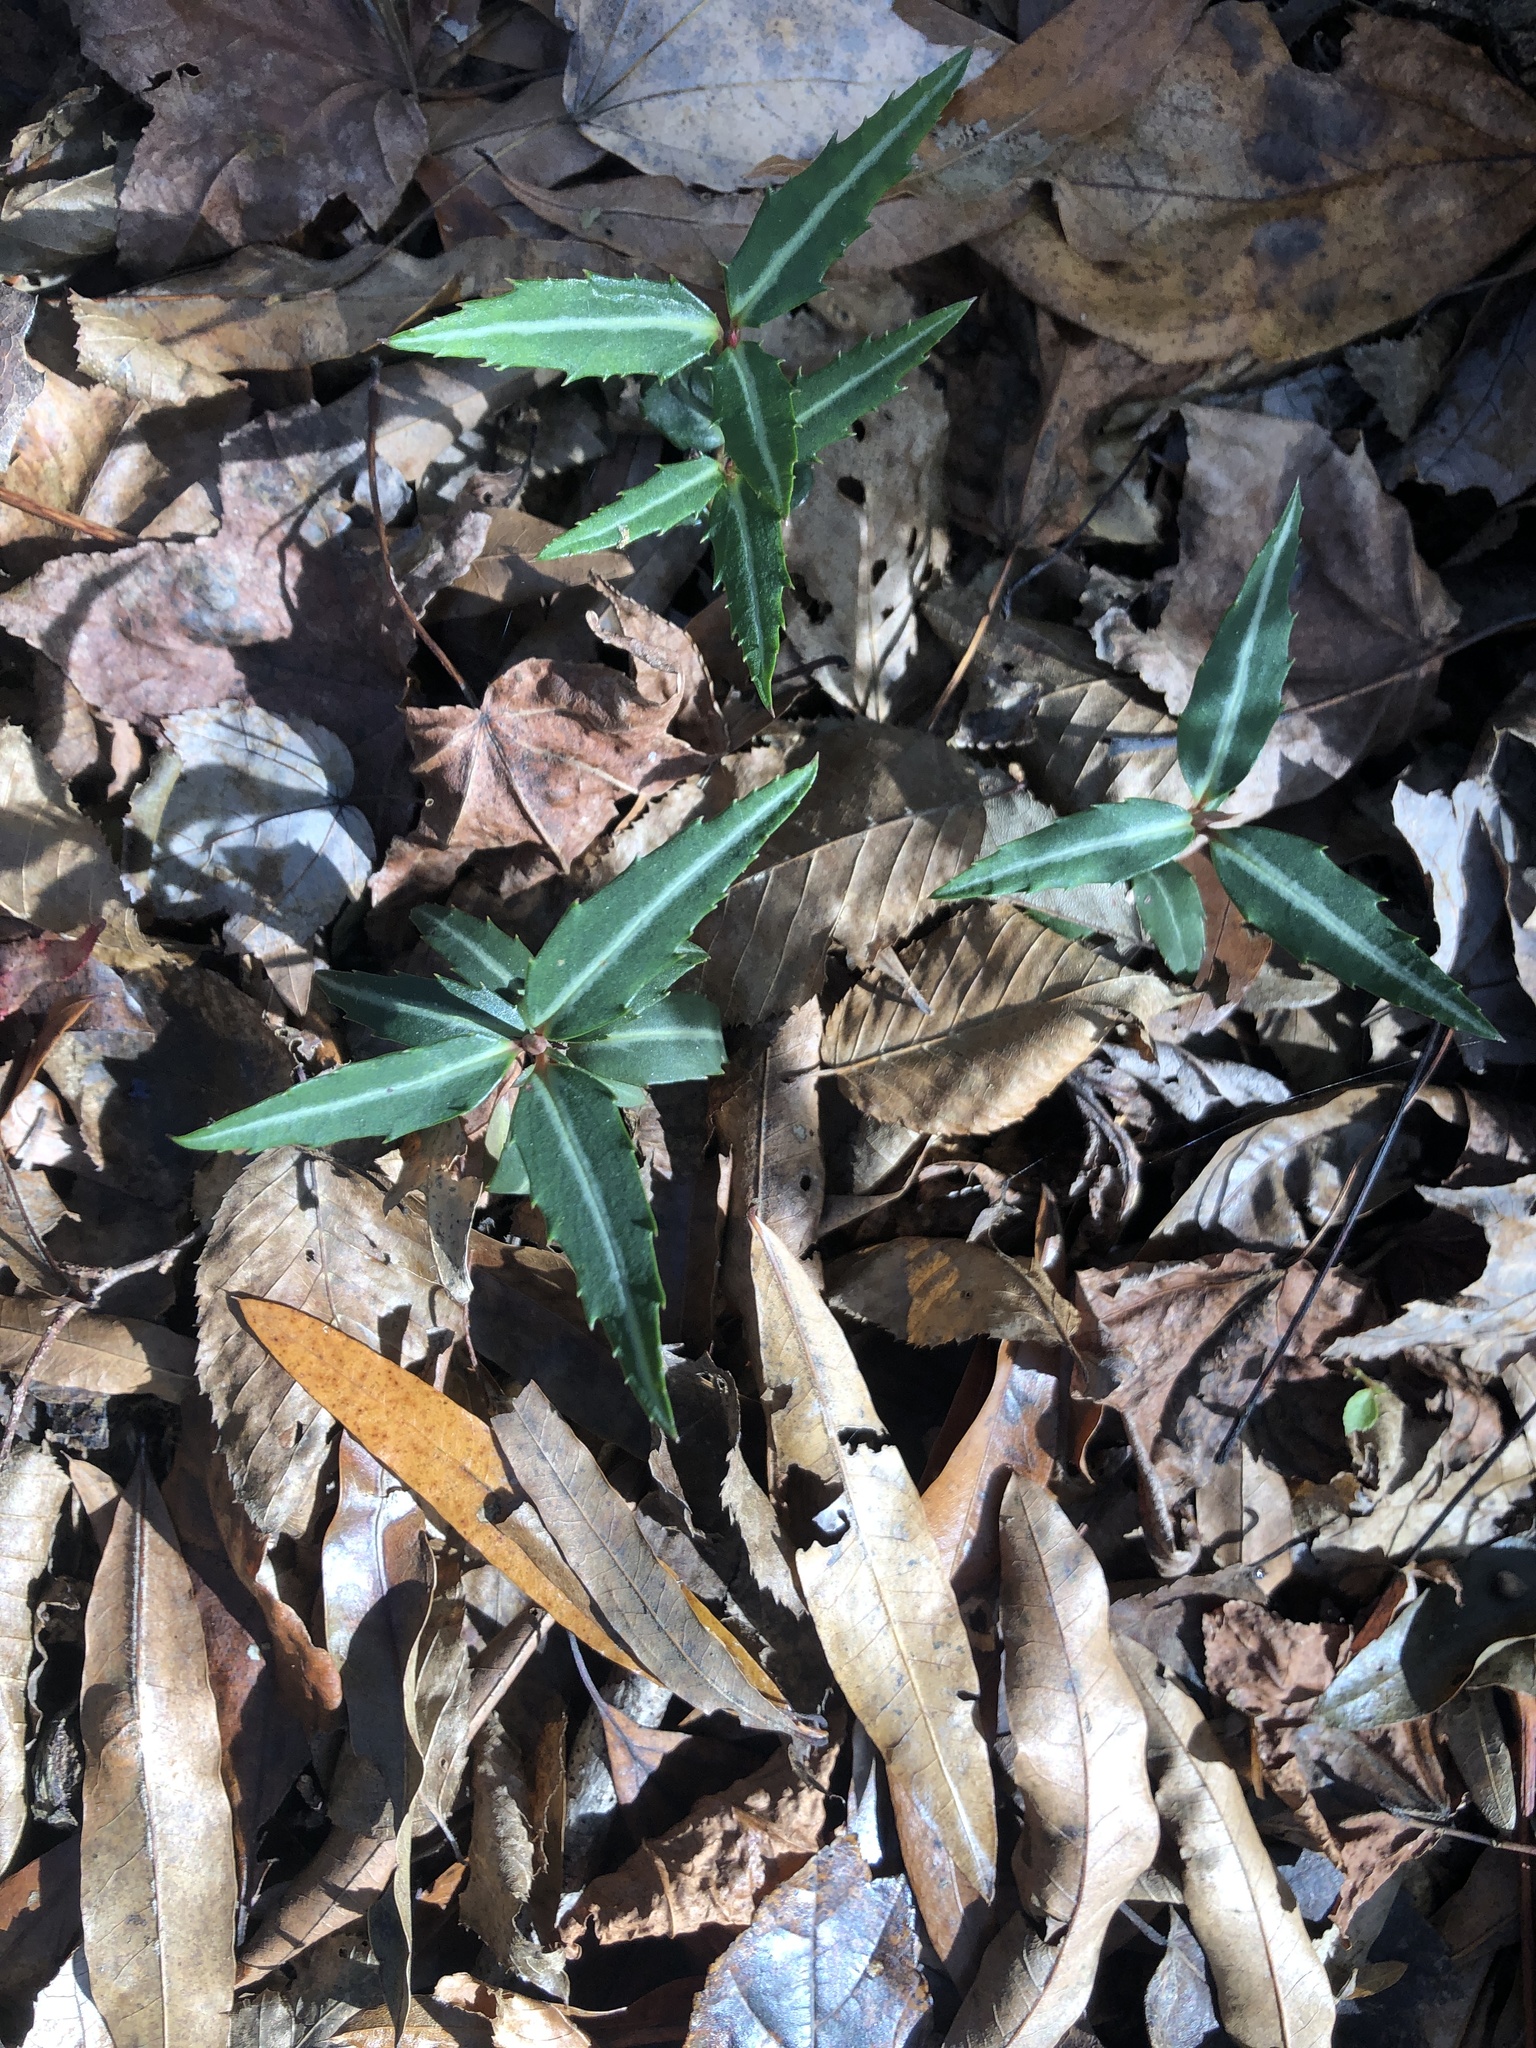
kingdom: Plantae
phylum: Tracheophyta
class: Magnoliopsida
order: Ericales
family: Ericaceae
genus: Chimaphila
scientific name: Chimaphila maculata
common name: Spotted pipsissewa
